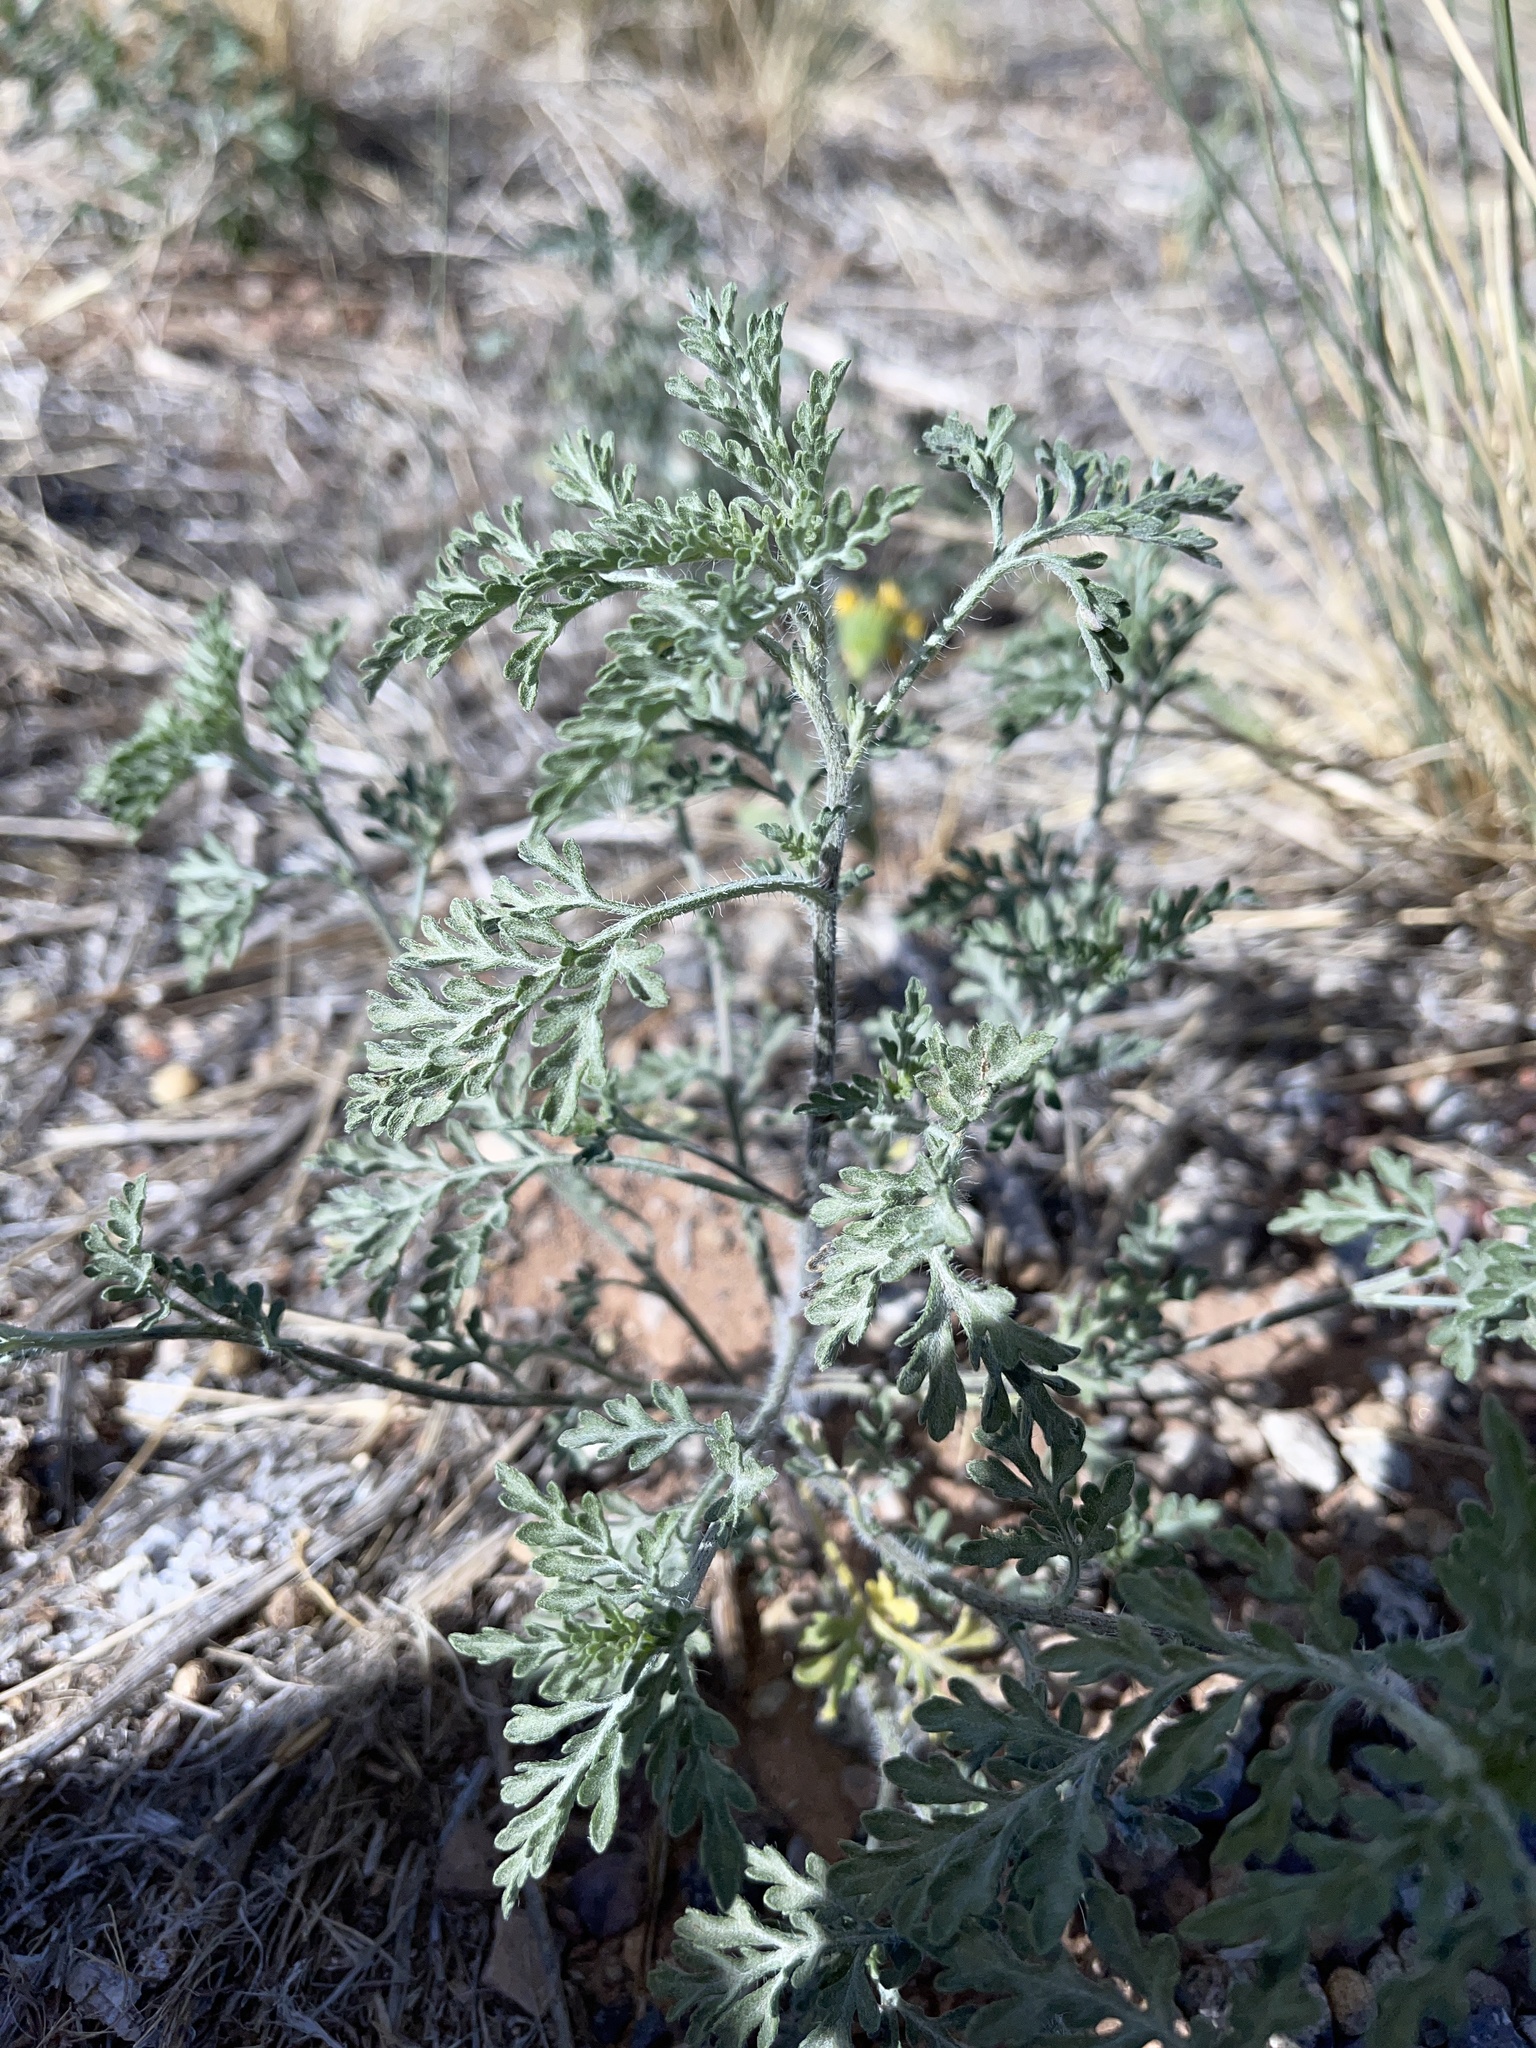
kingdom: Plantae
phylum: Tracheophyta
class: Magnoliopsida
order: Asterales
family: Asteraceae
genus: Ambrosia
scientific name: Ambrosia artemisiifolia
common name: Annual ragweed
